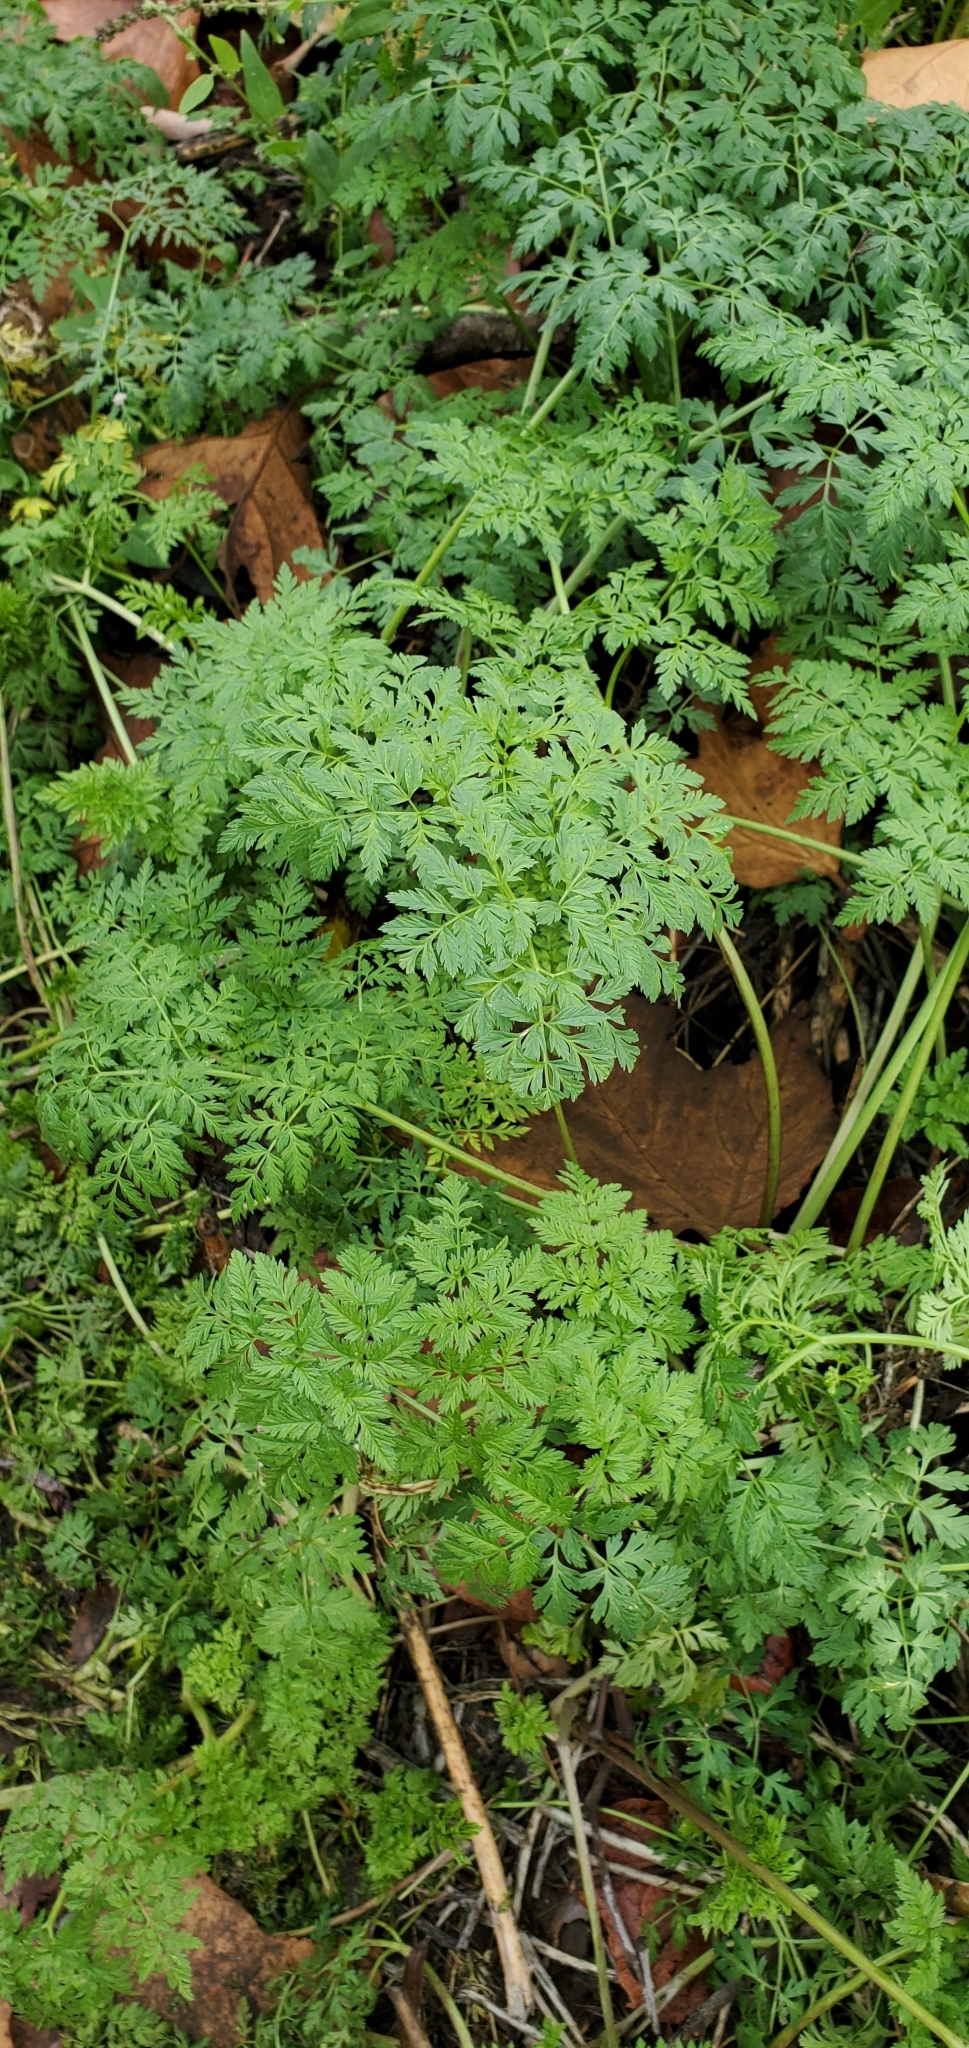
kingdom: Plantae
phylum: Tracheophyta
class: Magnoliopsida
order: Apiales
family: Apiaceae
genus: Conium
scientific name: Conium maculatum
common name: Hemlock
